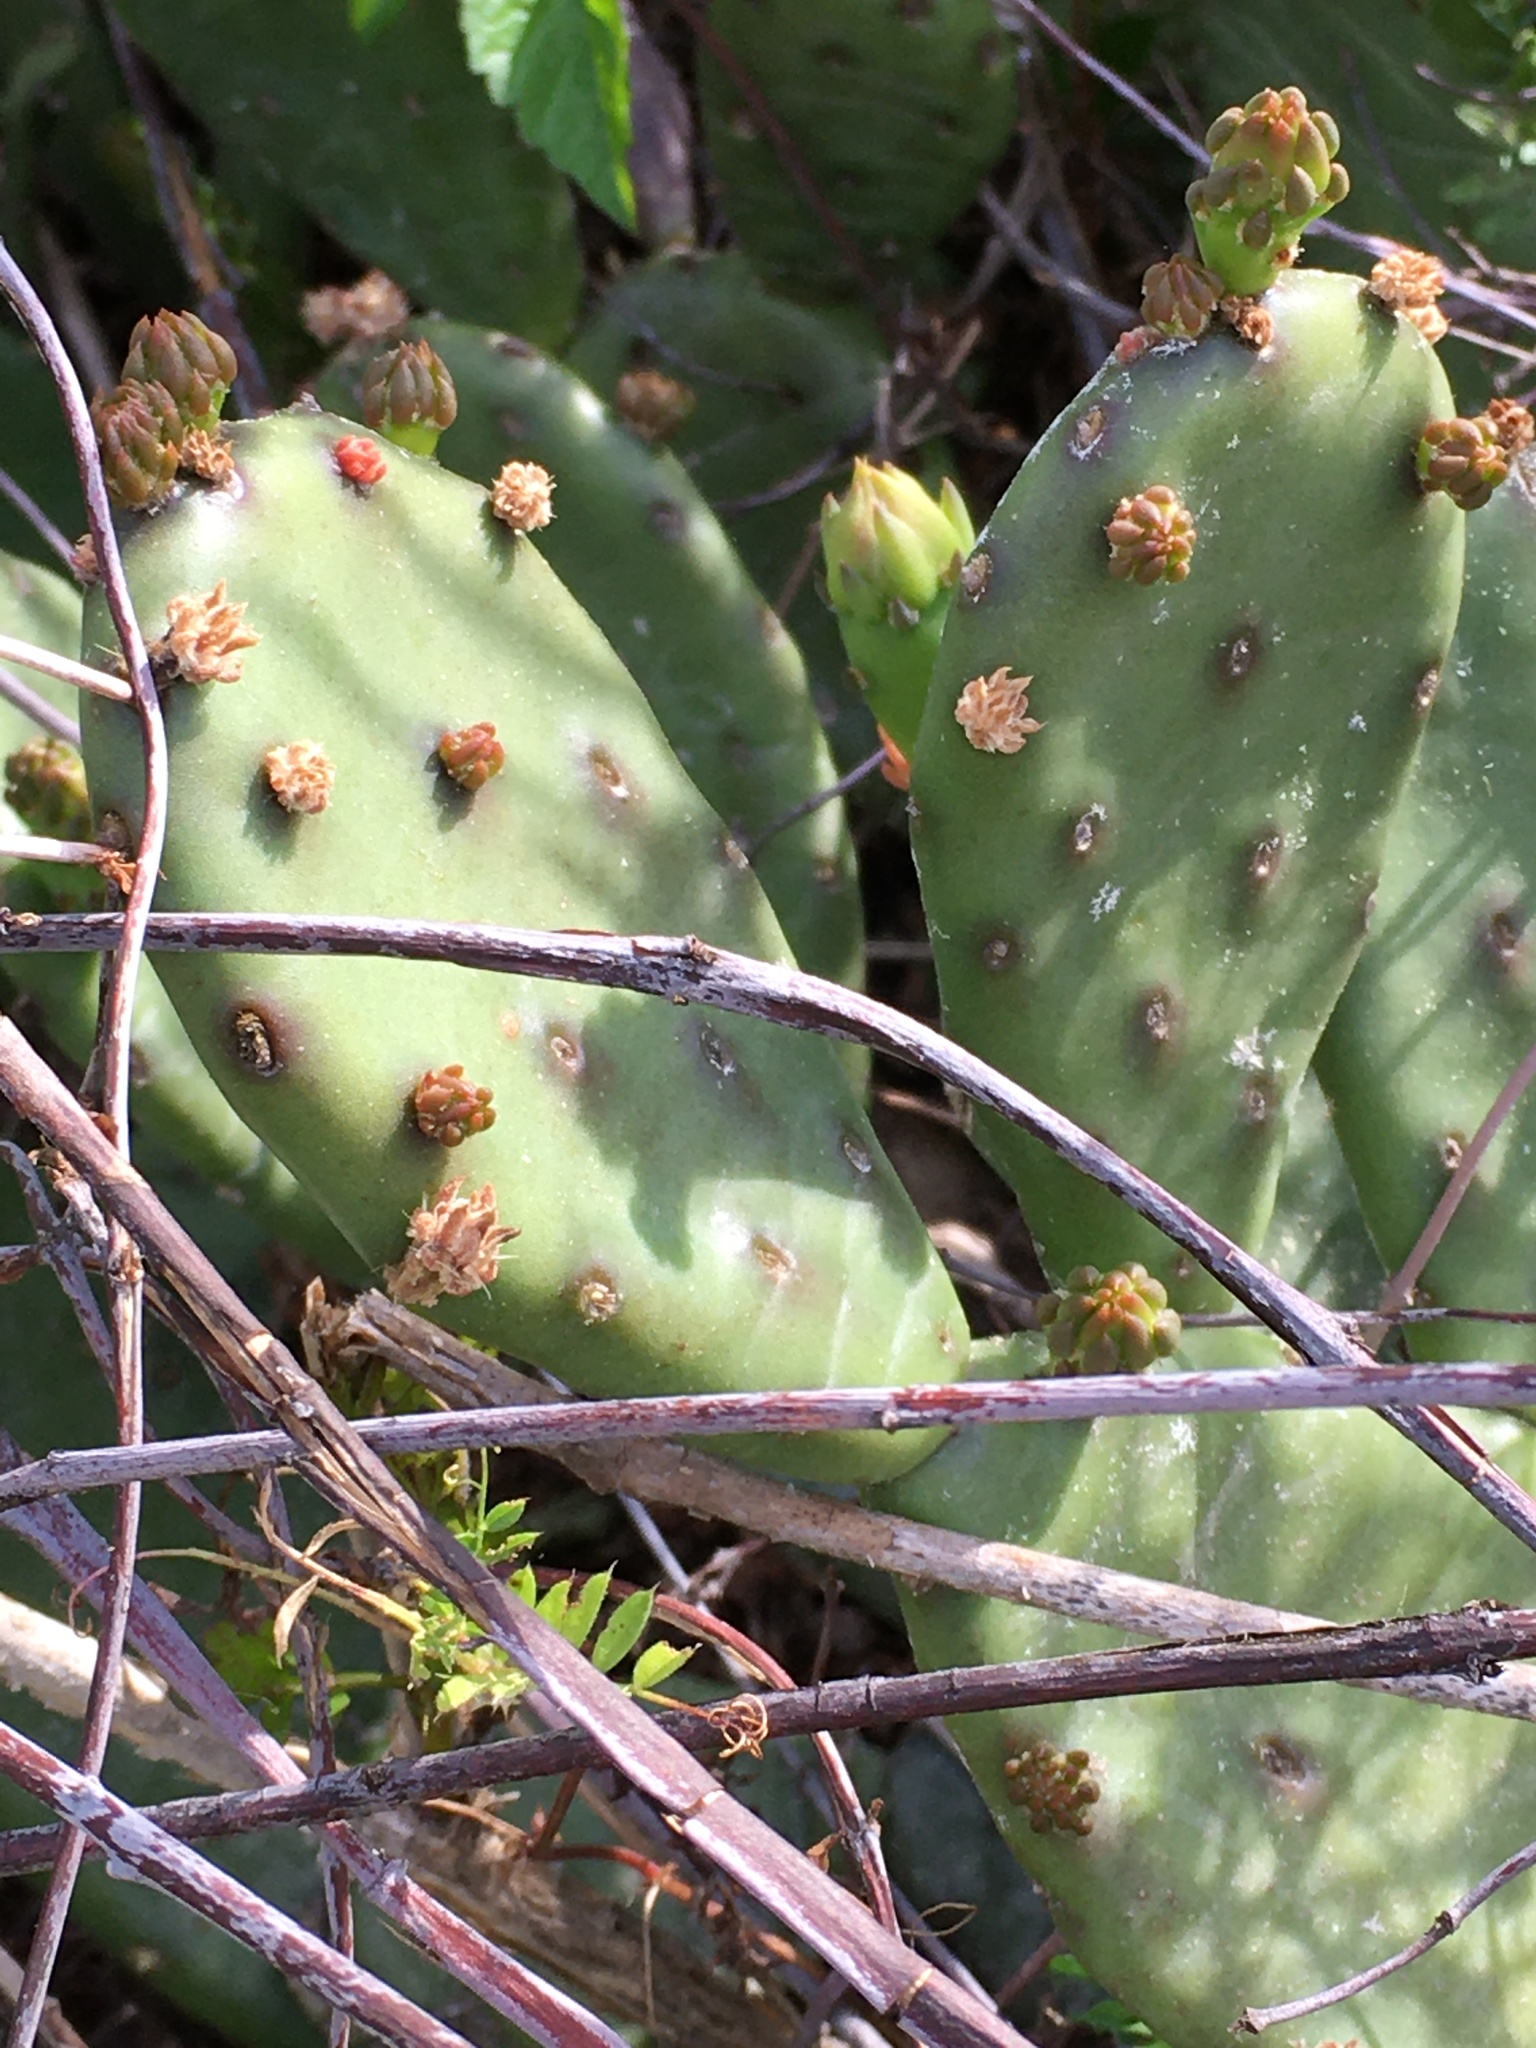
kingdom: Plantae
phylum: Tracheophyta
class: Magnoliopsida
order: Caryophyllales
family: Cactaceae
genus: Opuntia
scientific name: Opuntia mesacantha
